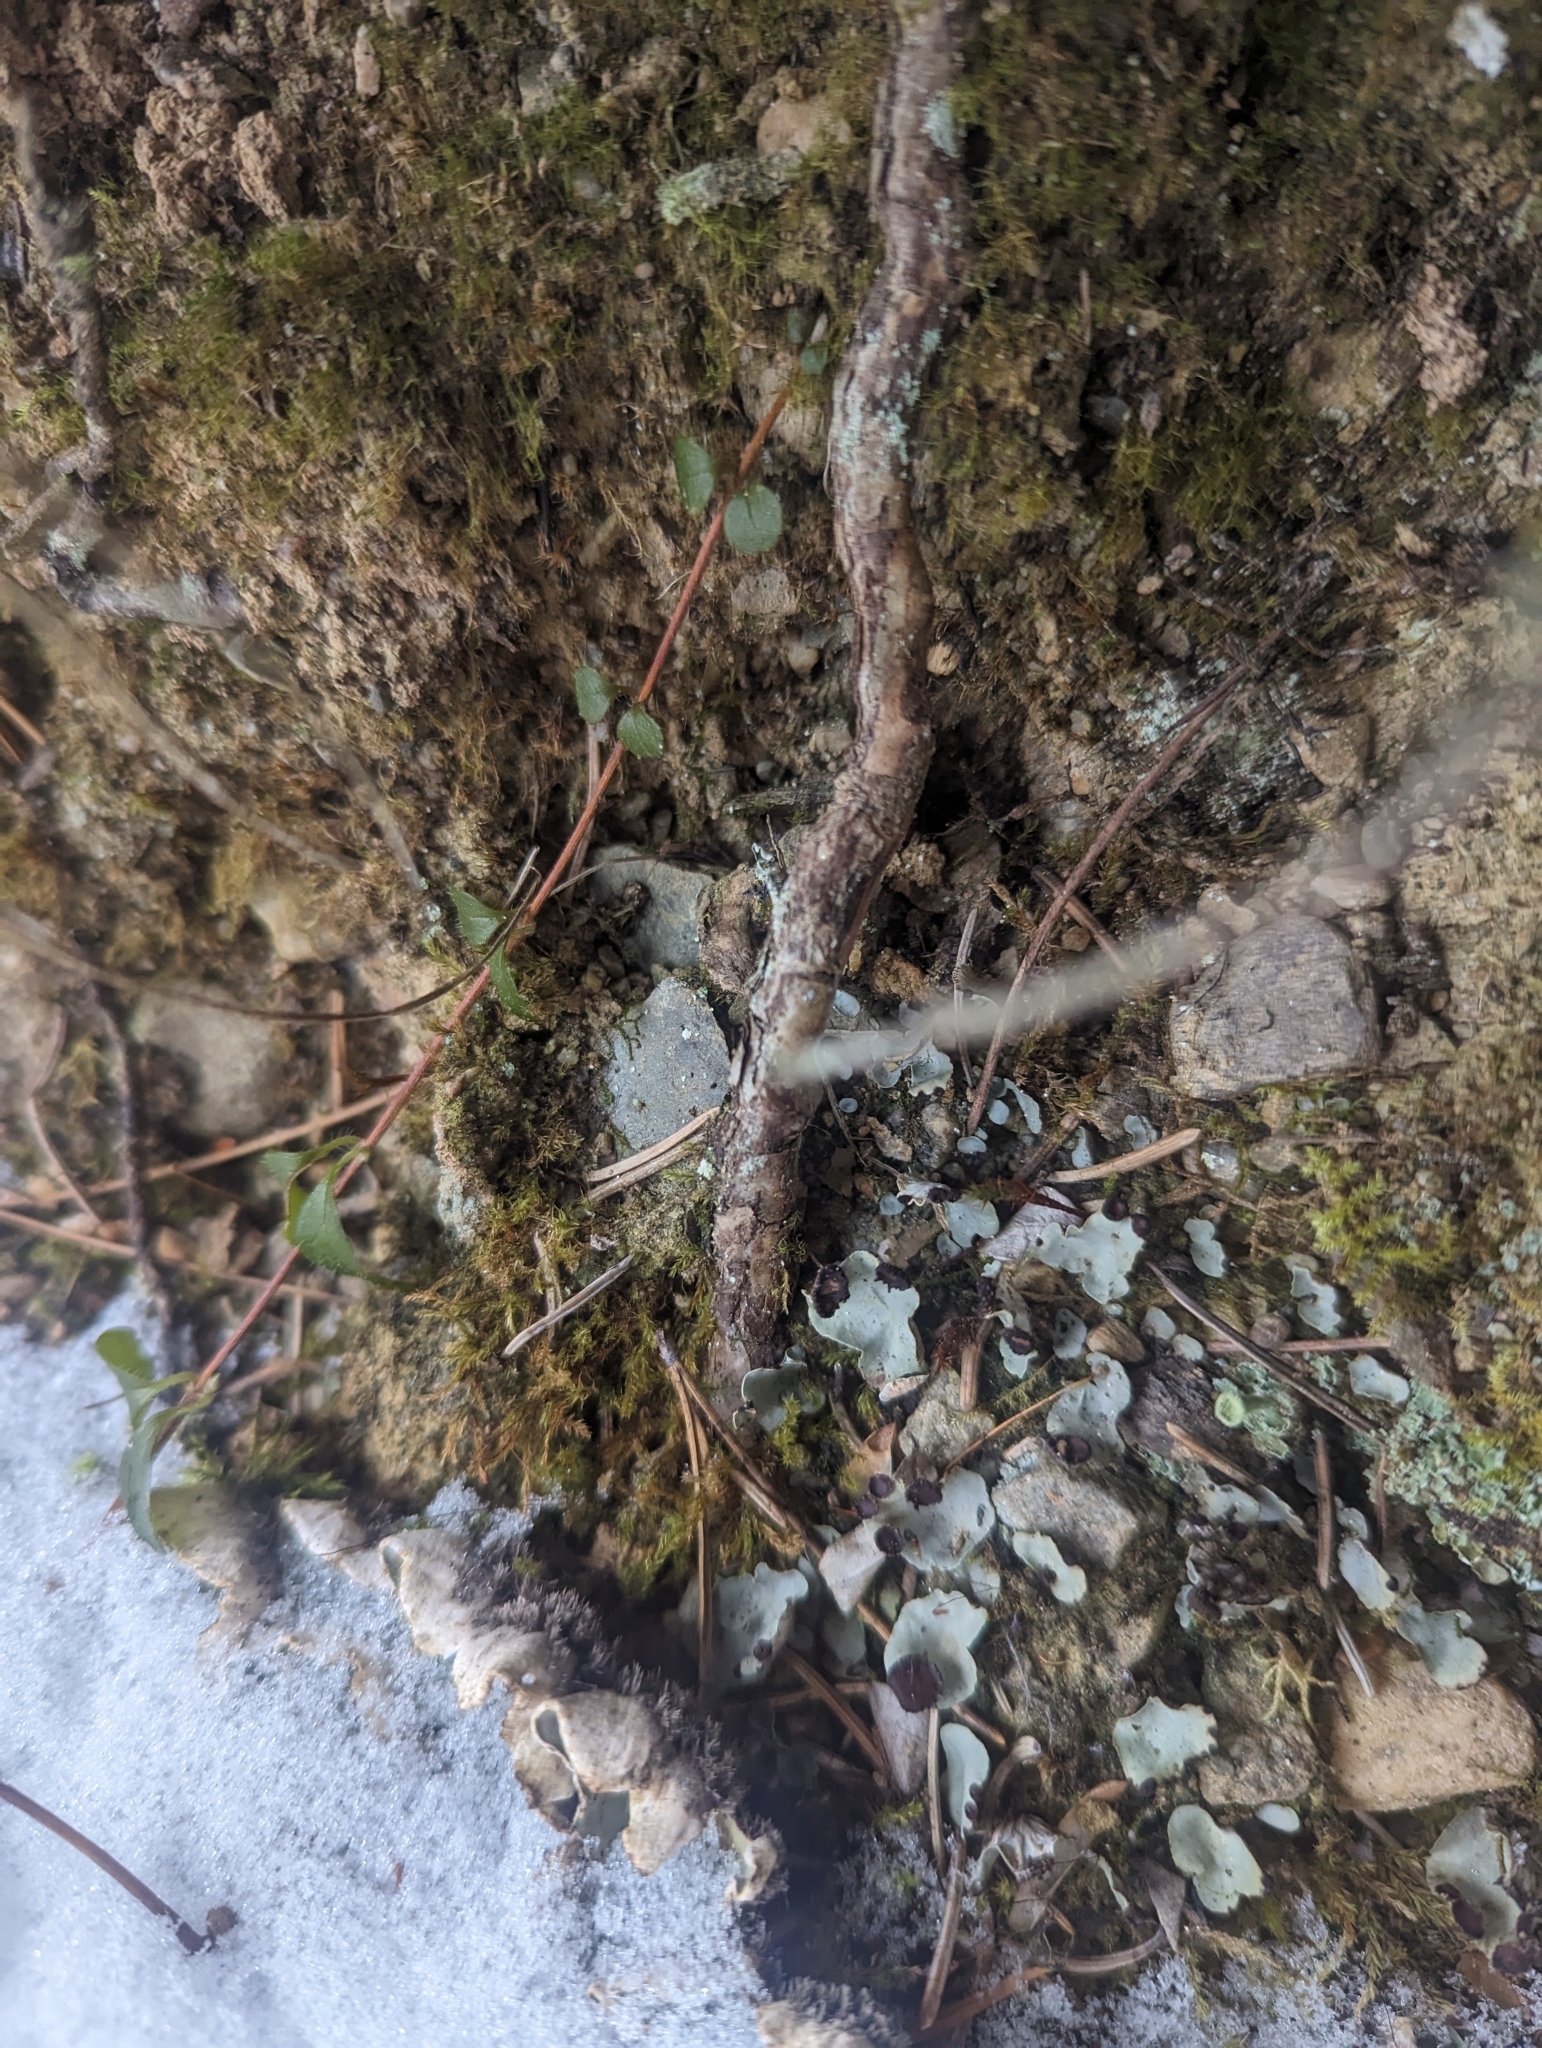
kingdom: Fungi
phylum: Ascomycota
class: Lecanoromycetes
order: Peltigerales
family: Peltigeraceae
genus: Peltigera
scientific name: Peltigera venosa
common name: Pixie gowns lichen
